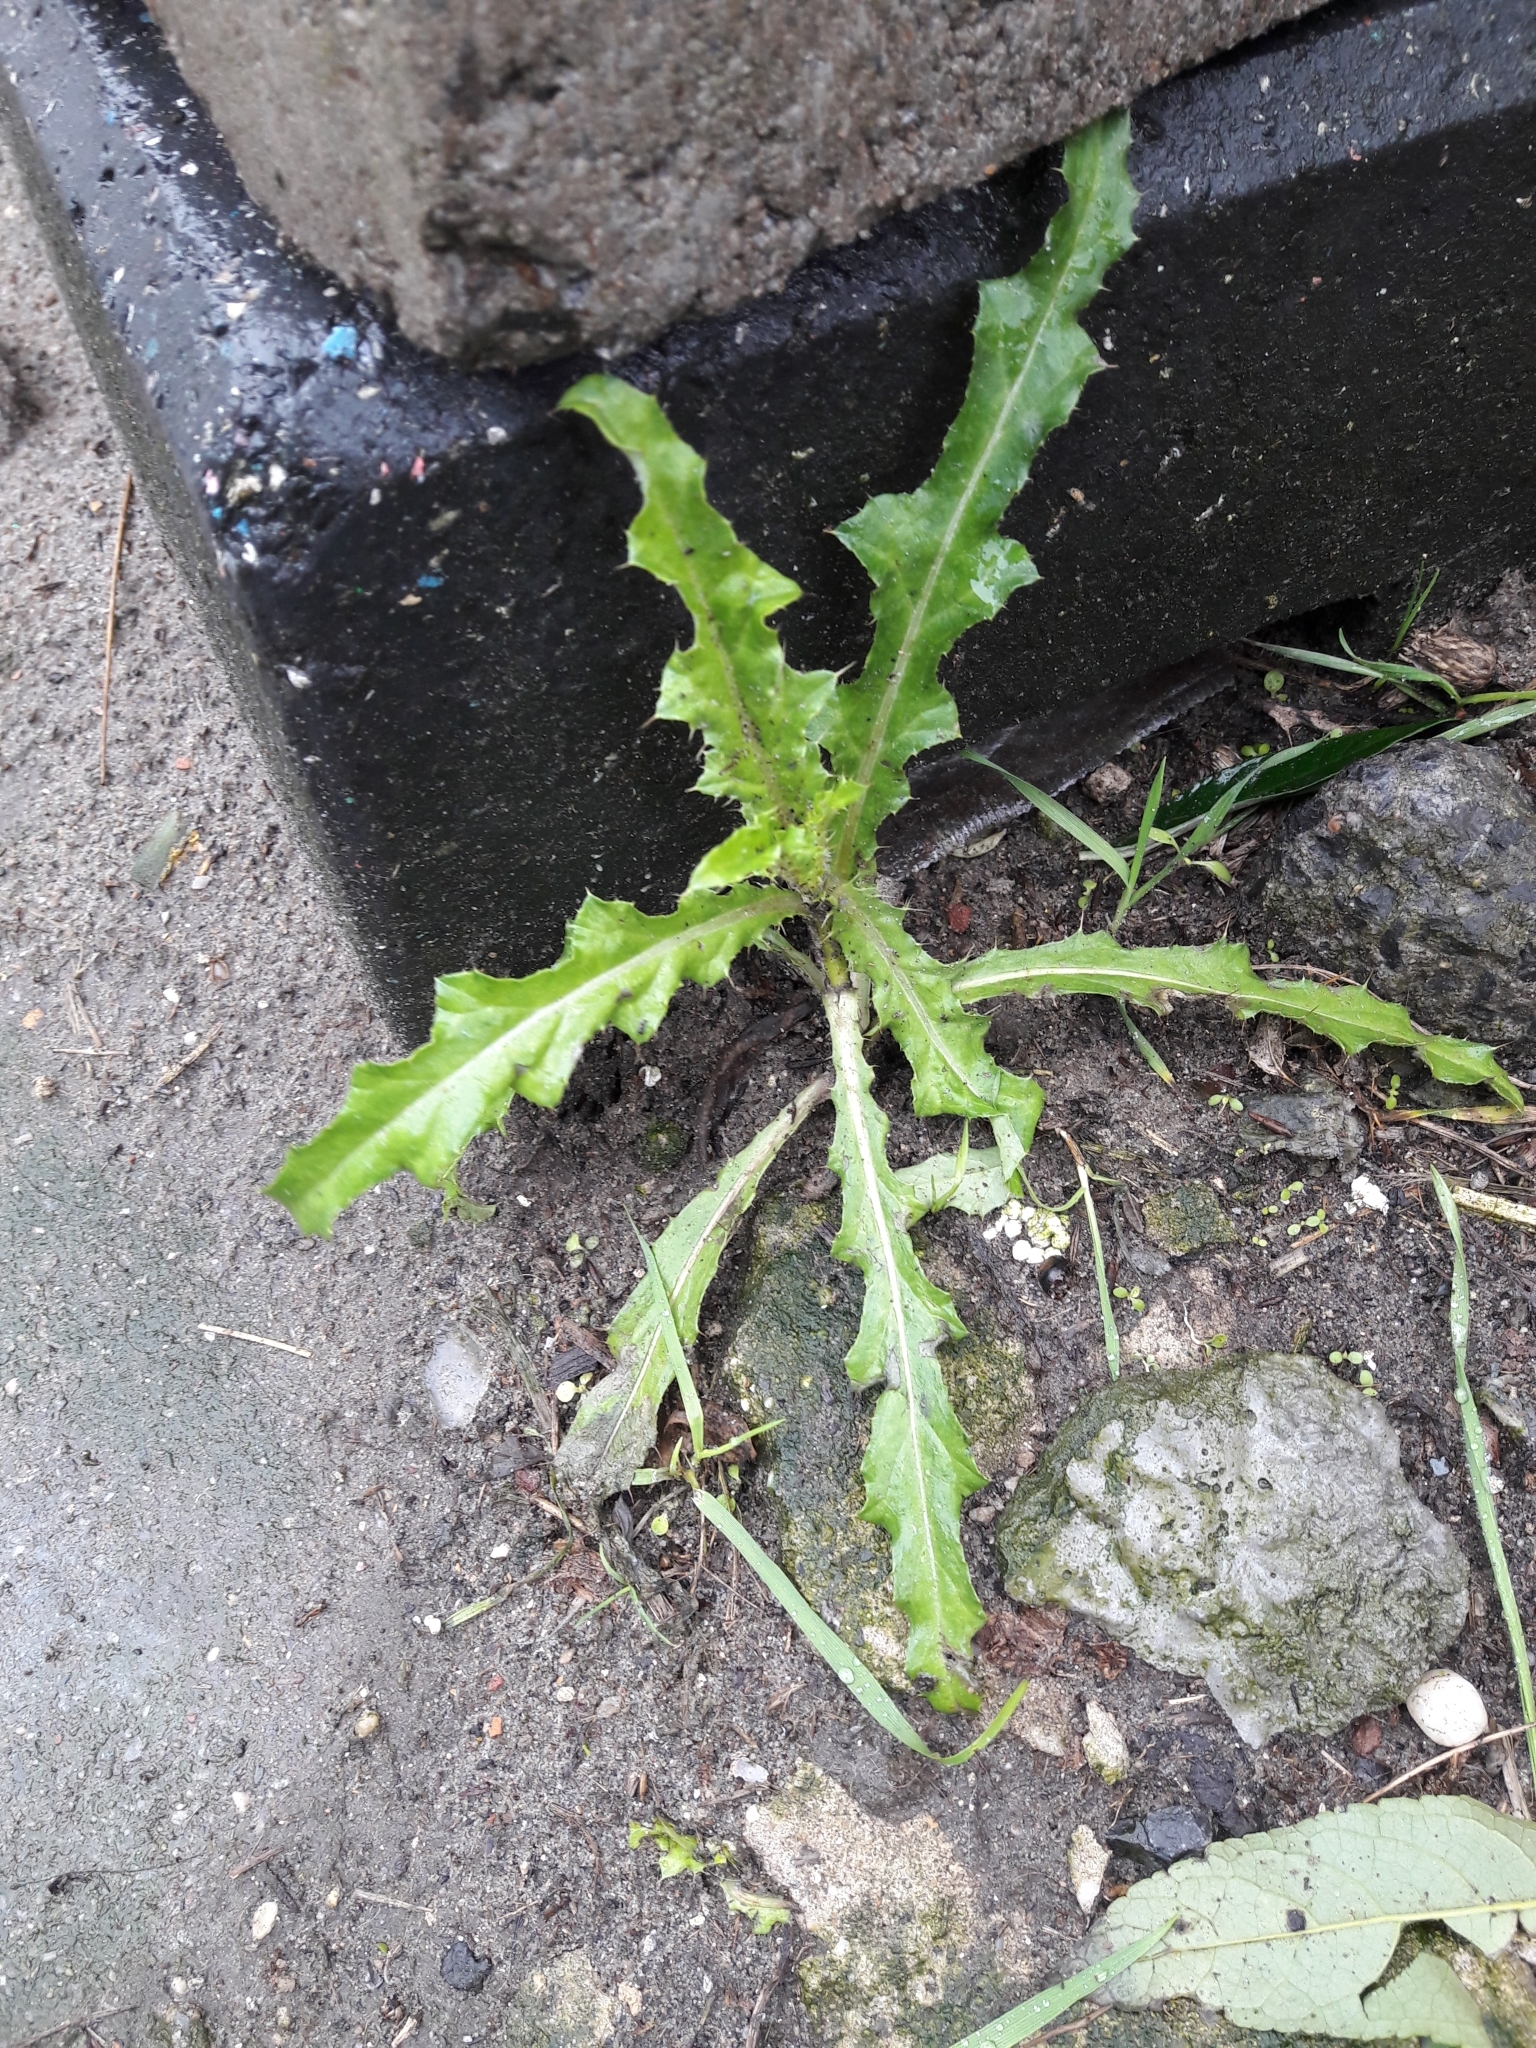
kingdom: Plantae
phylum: Tracheophyta
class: Magnoliopsida
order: Asterales
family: Asteraceae
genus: Cirsium
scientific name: Cirsium arvense
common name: Creeping thistle
